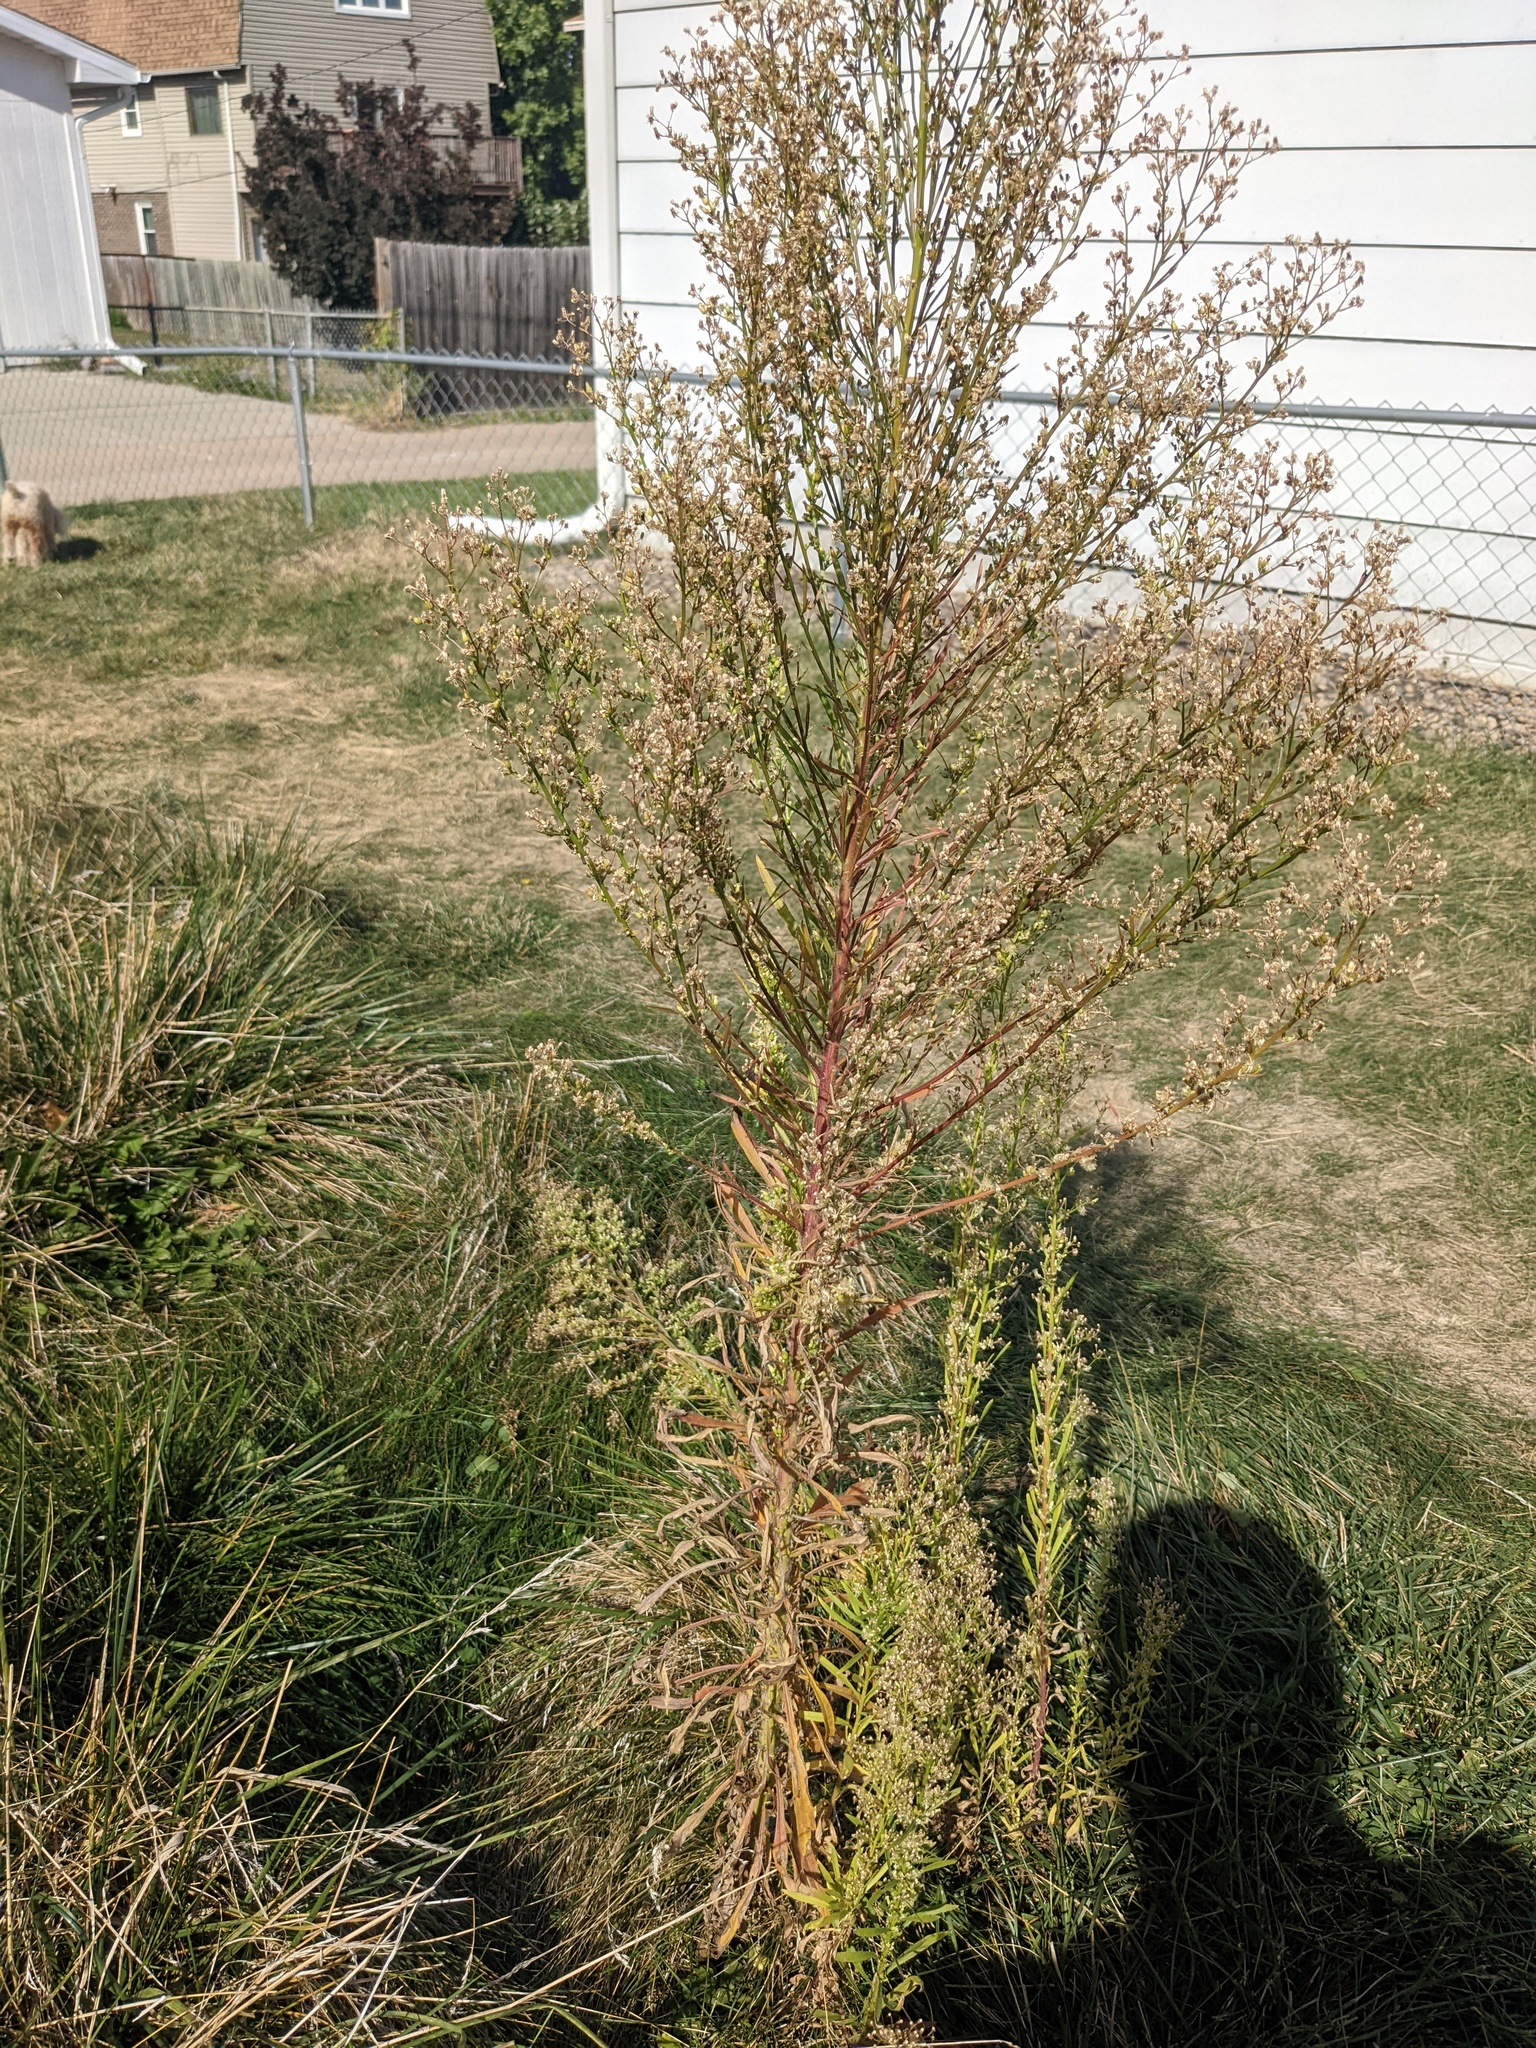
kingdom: Plantae
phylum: Tracheophyta
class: Magnoliopsida
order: Asterales
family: Asteraceae
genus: Erigeron
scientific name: Erigeron canadensis
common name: Canadian fleabane
